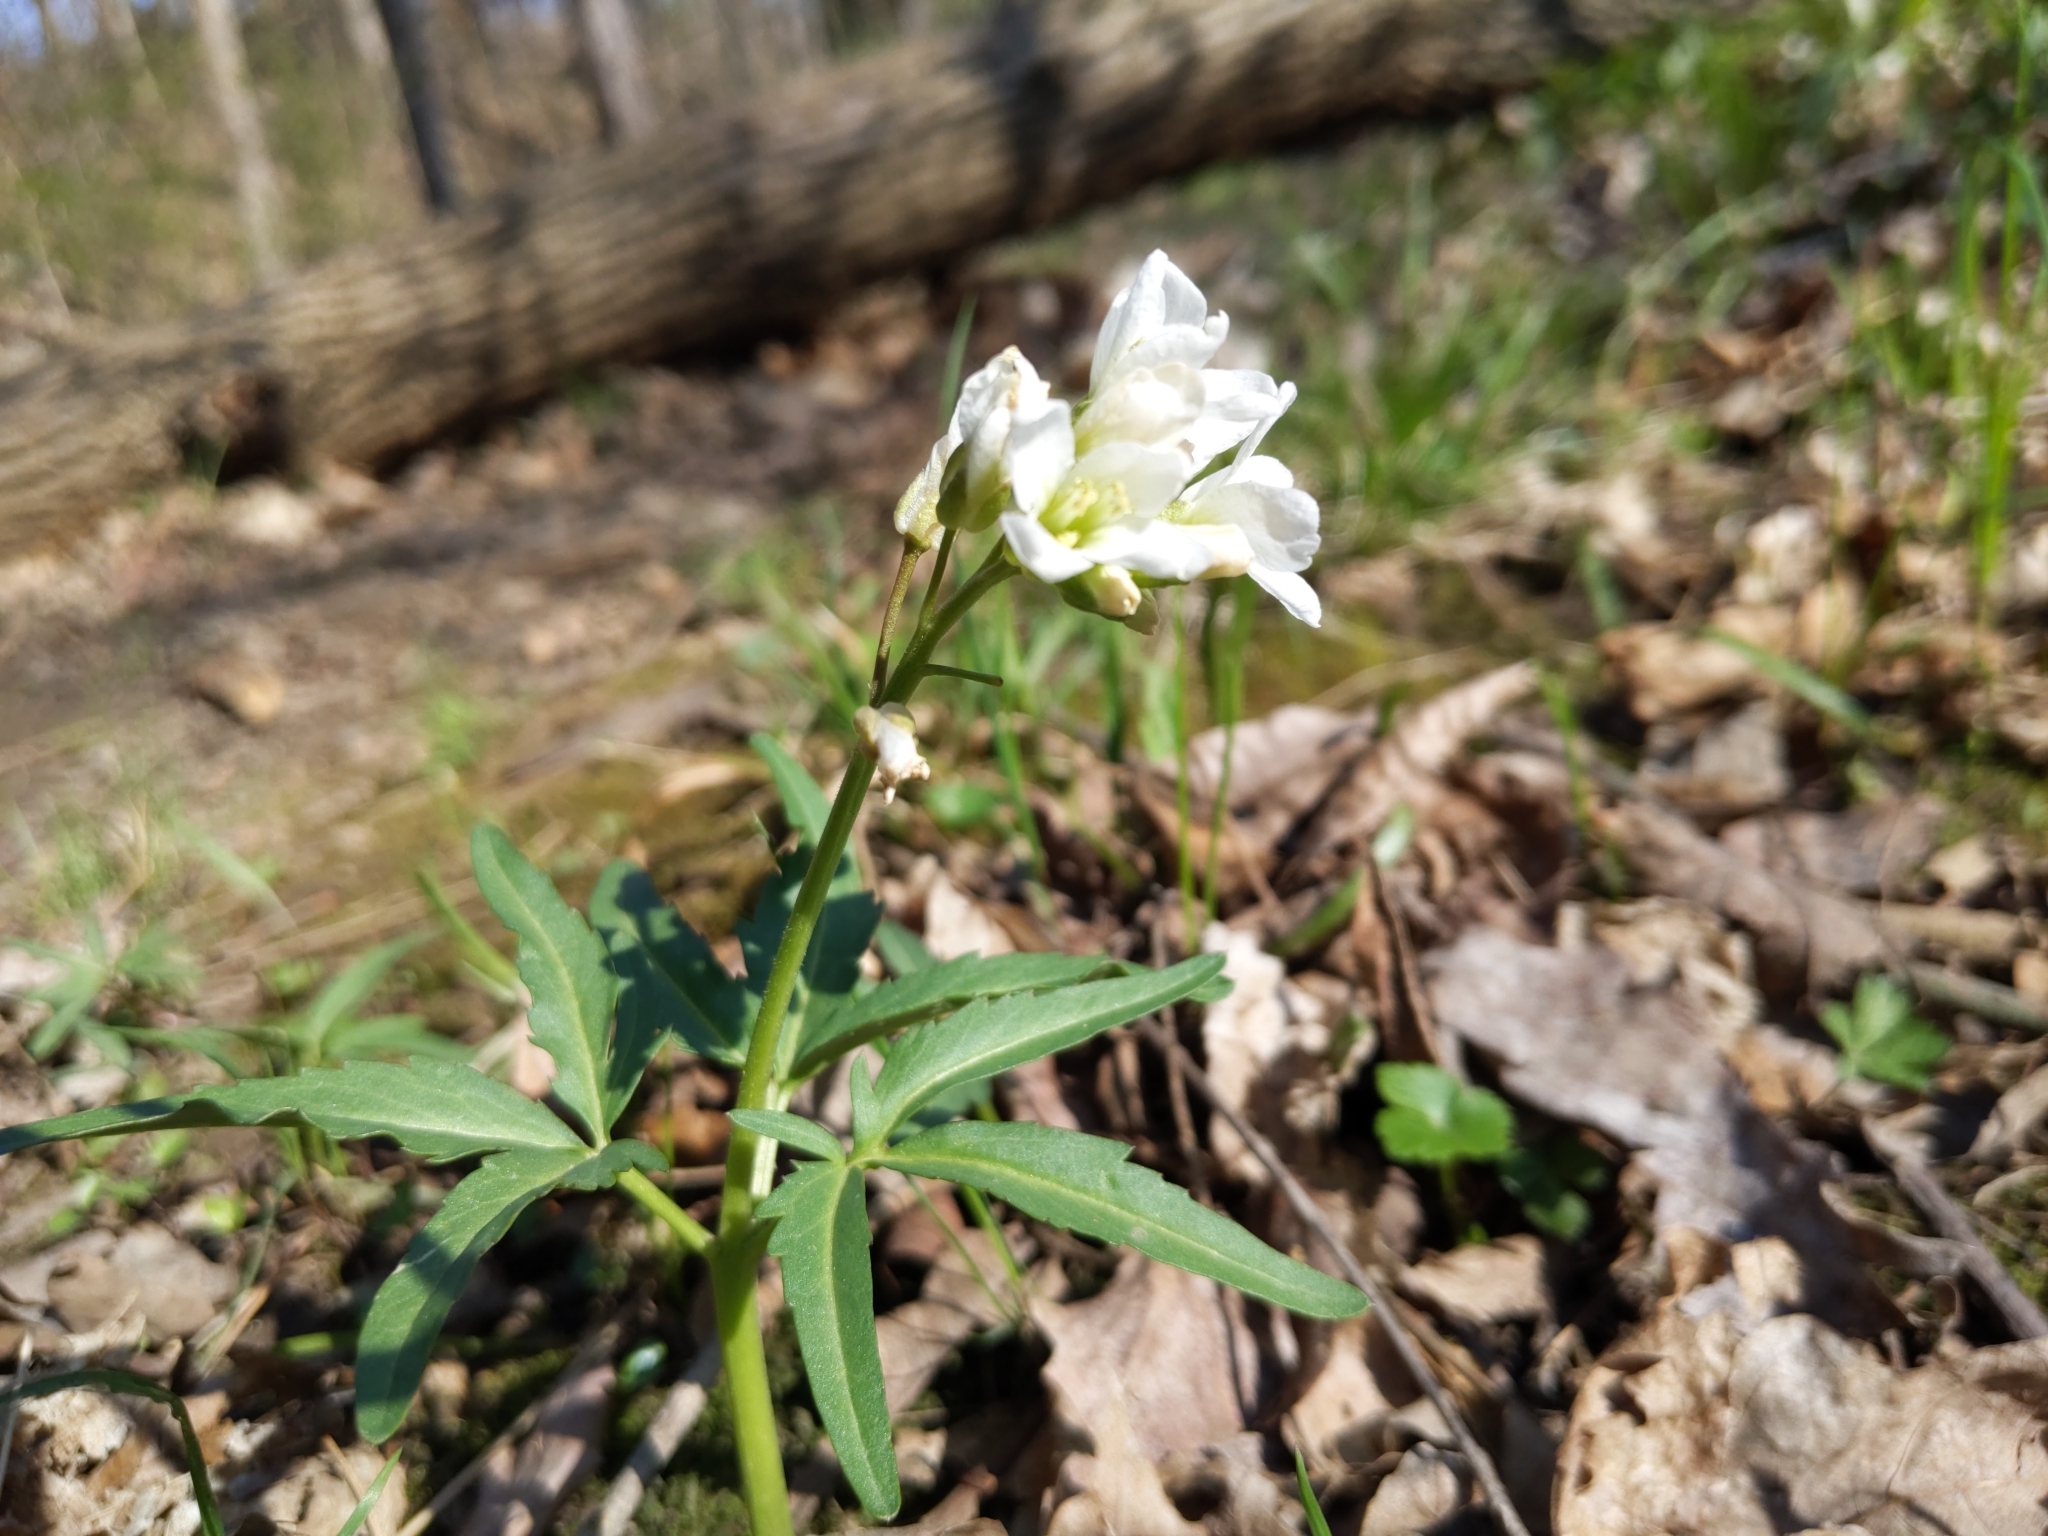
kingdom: Plantae
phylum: Tracheophyta
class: Magnoliopsida
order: Brassicales
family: Brassicaceae
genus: Cardamine
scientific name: Cardamine concatenata
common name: Cut-leaf toothcup
